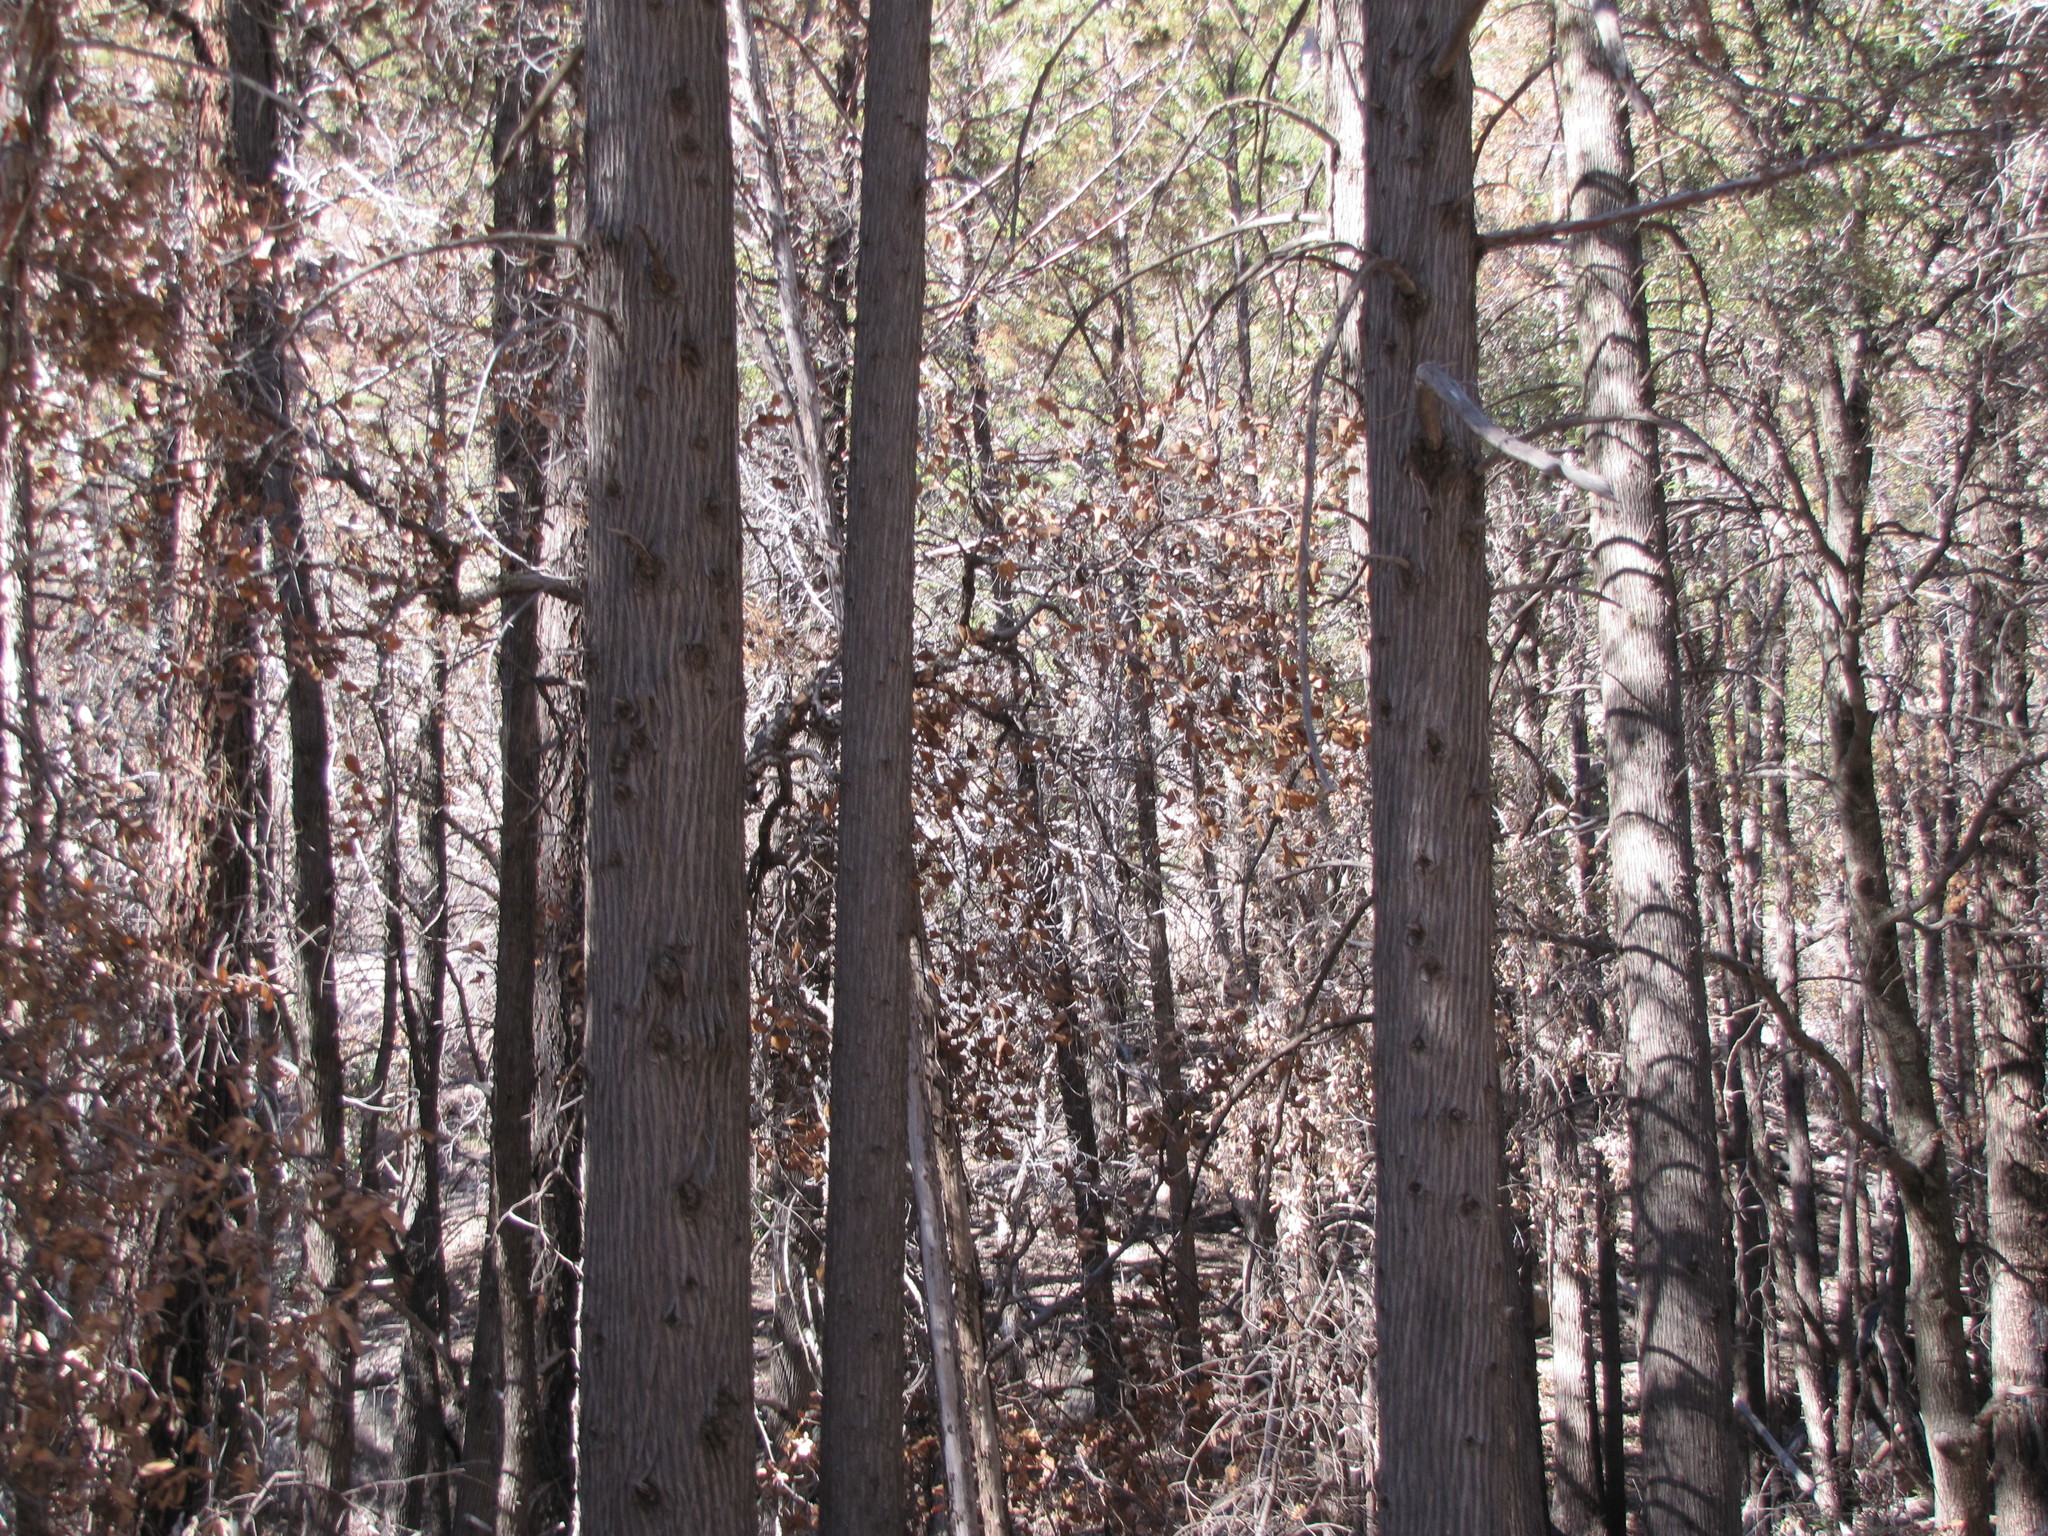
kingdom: Plantae
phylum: Tracheophyta
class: Pinopsida
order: Pinales
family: Cupressaceae
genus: Cupressus
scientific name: Cupressus arizonica
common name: Arizona cypress
